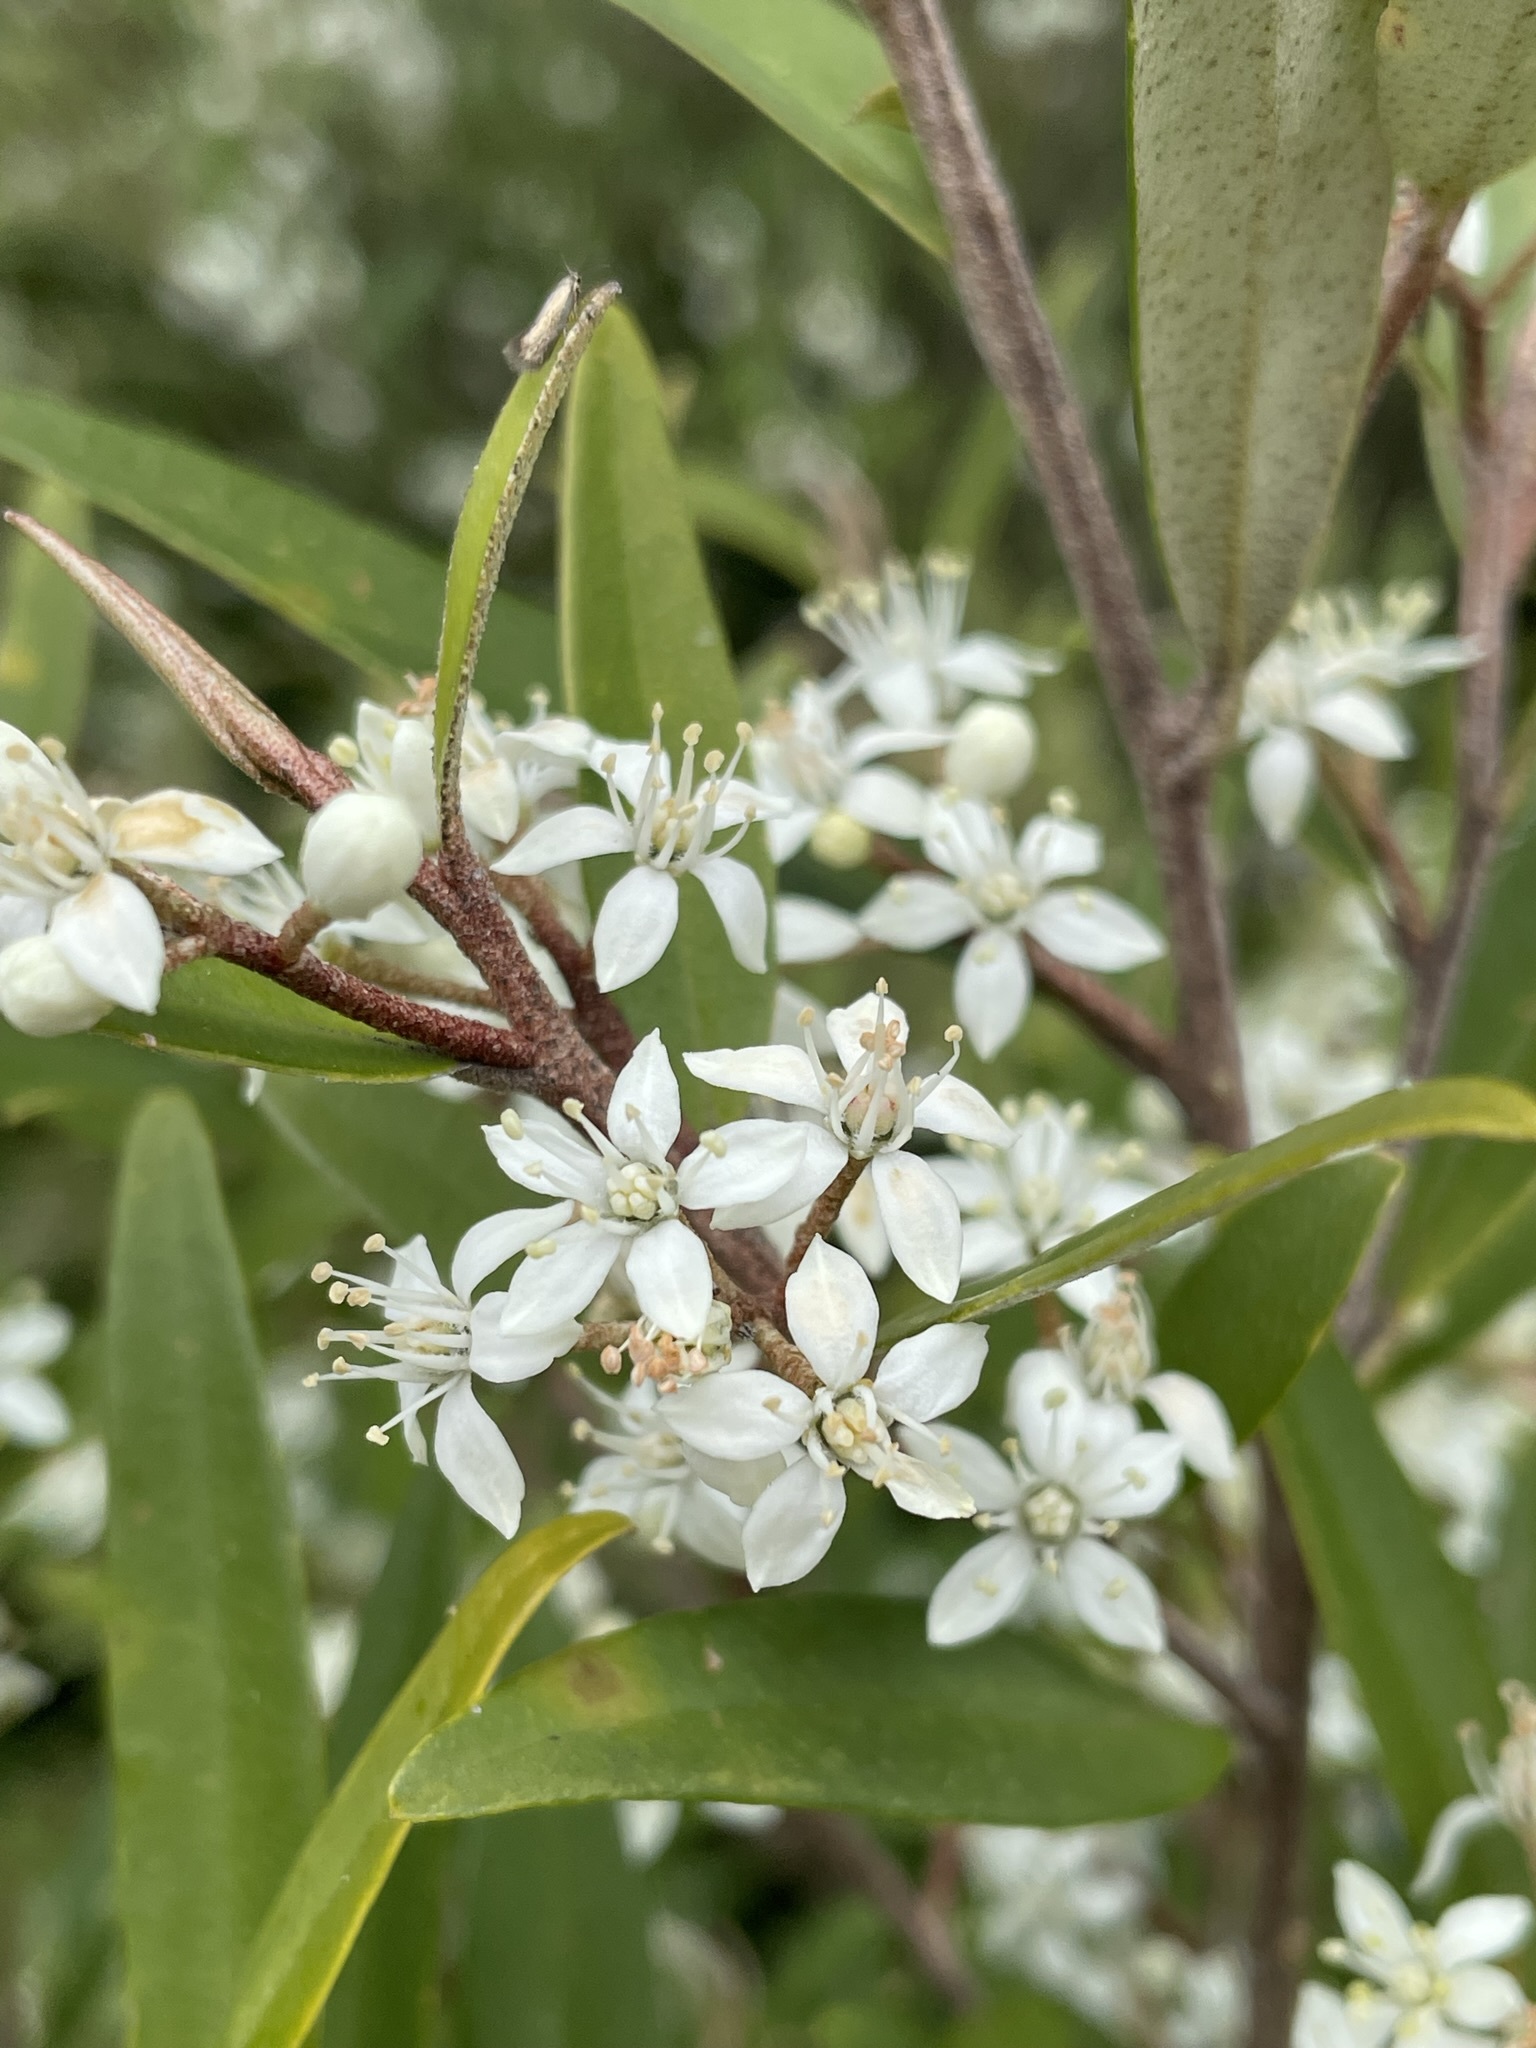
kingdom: Plantae
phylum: Tracheophyta
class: Magnoliopsida
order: Sapindales
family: Rutaceae
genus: Nematolepis
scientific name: Nematolepis squamea
